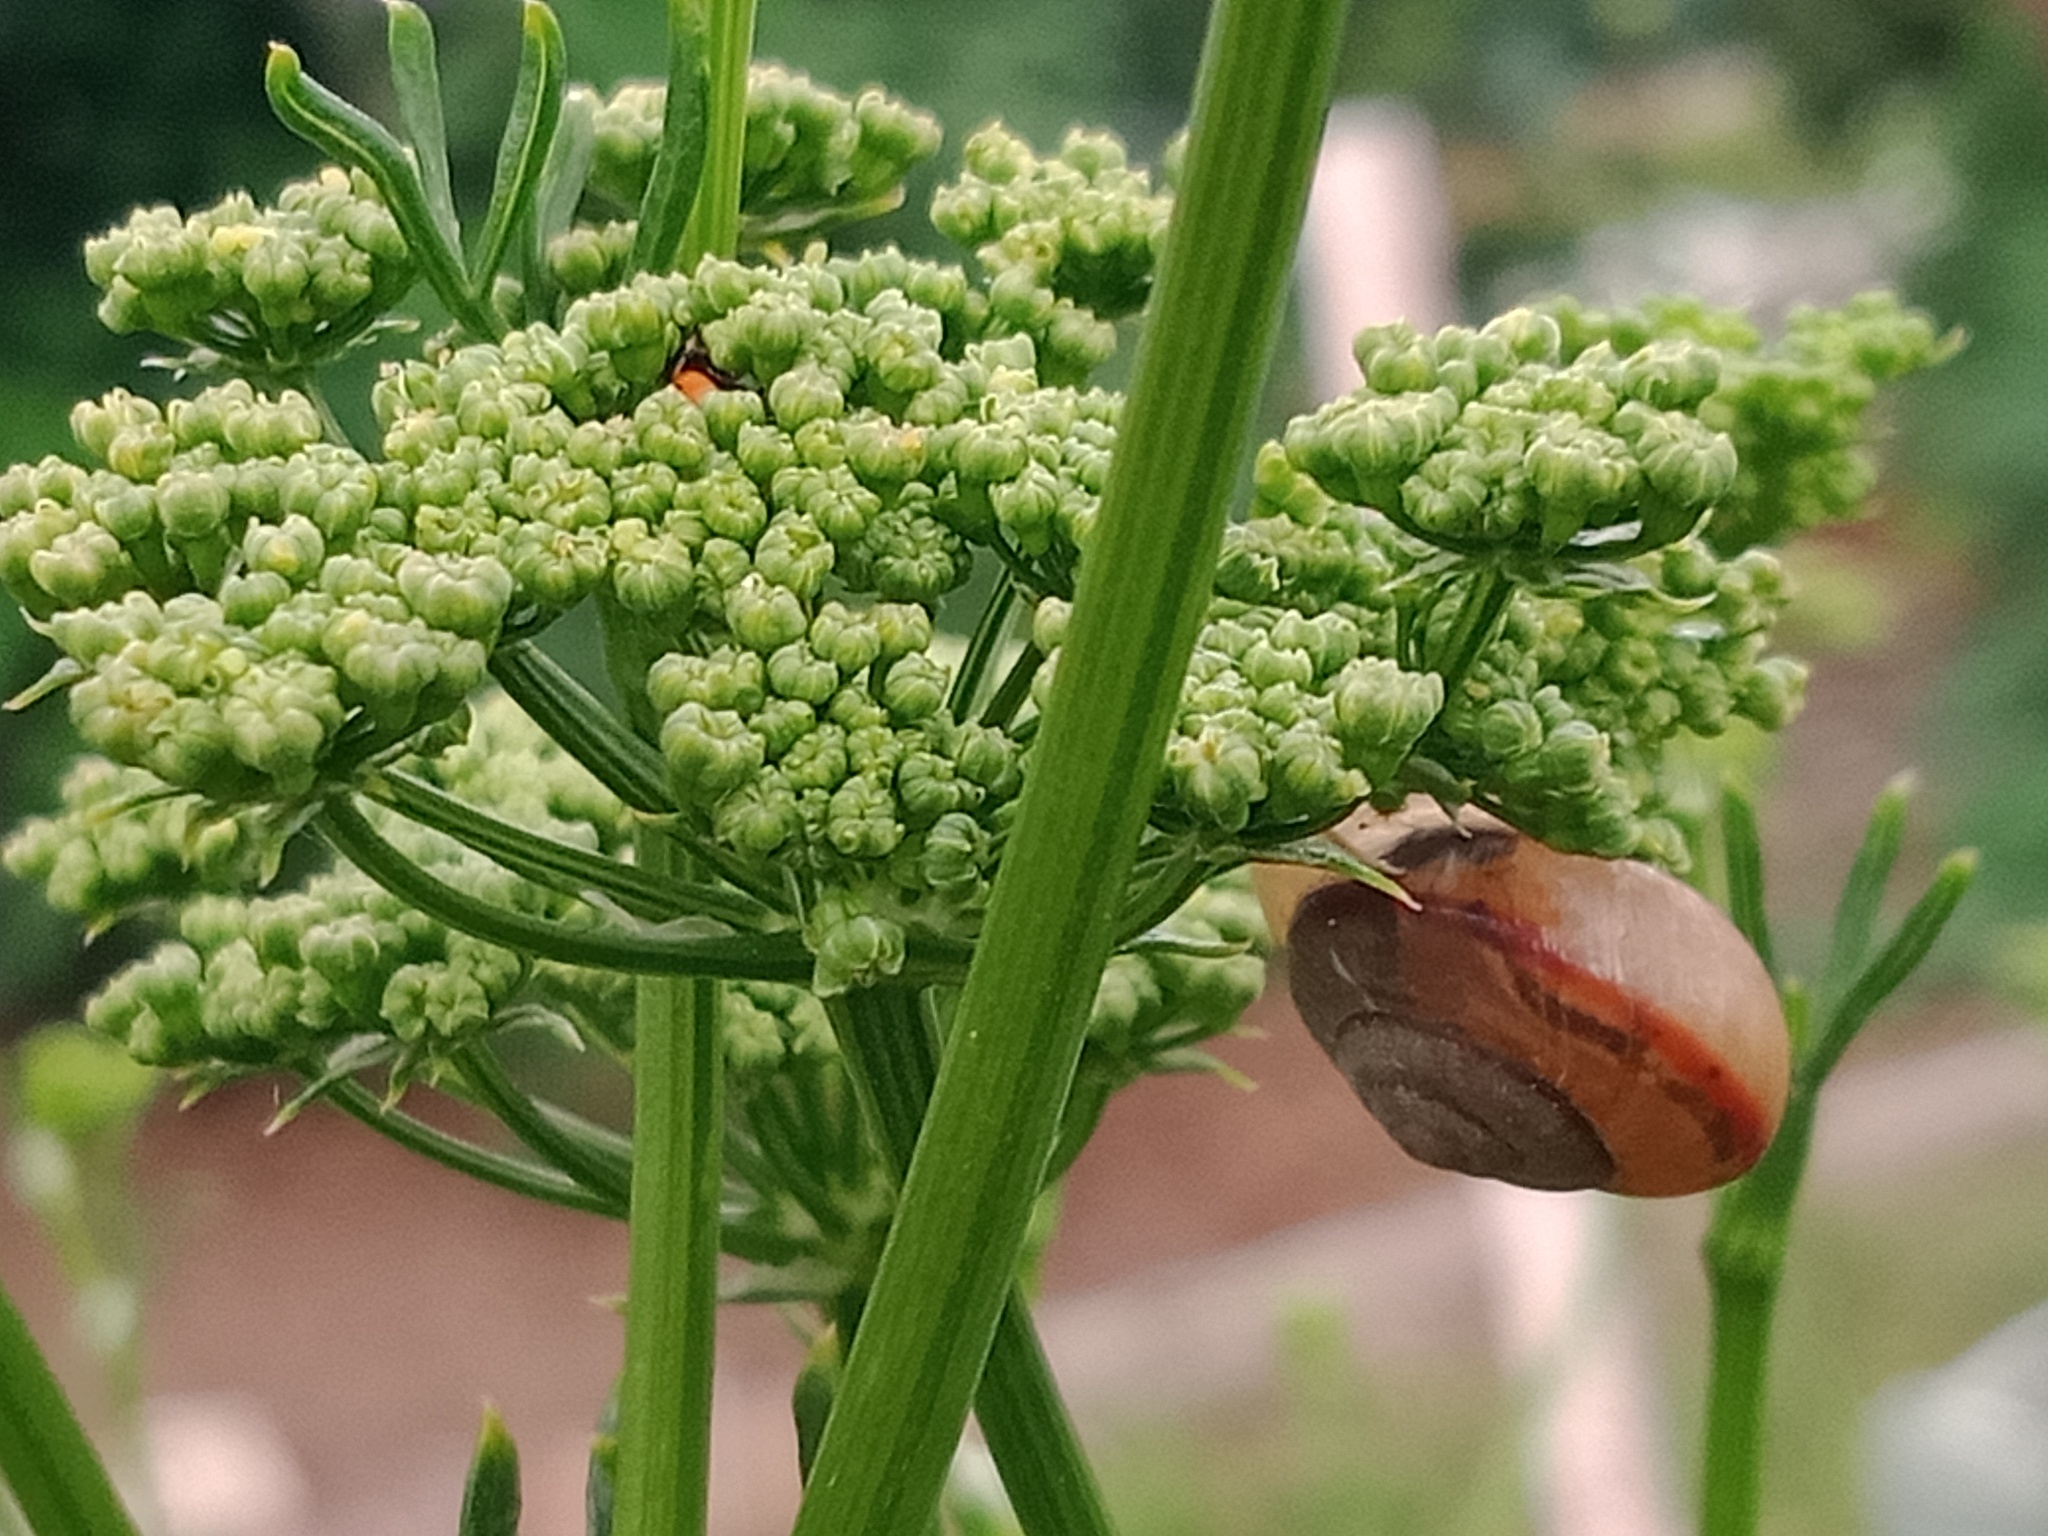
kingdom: Animalia
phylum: Mollusca
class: Gastropoda
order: Stylommatophora
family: Camaenidae
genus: Bradybaena
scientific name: Bradybaena similaris
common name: Asian trampsnail
